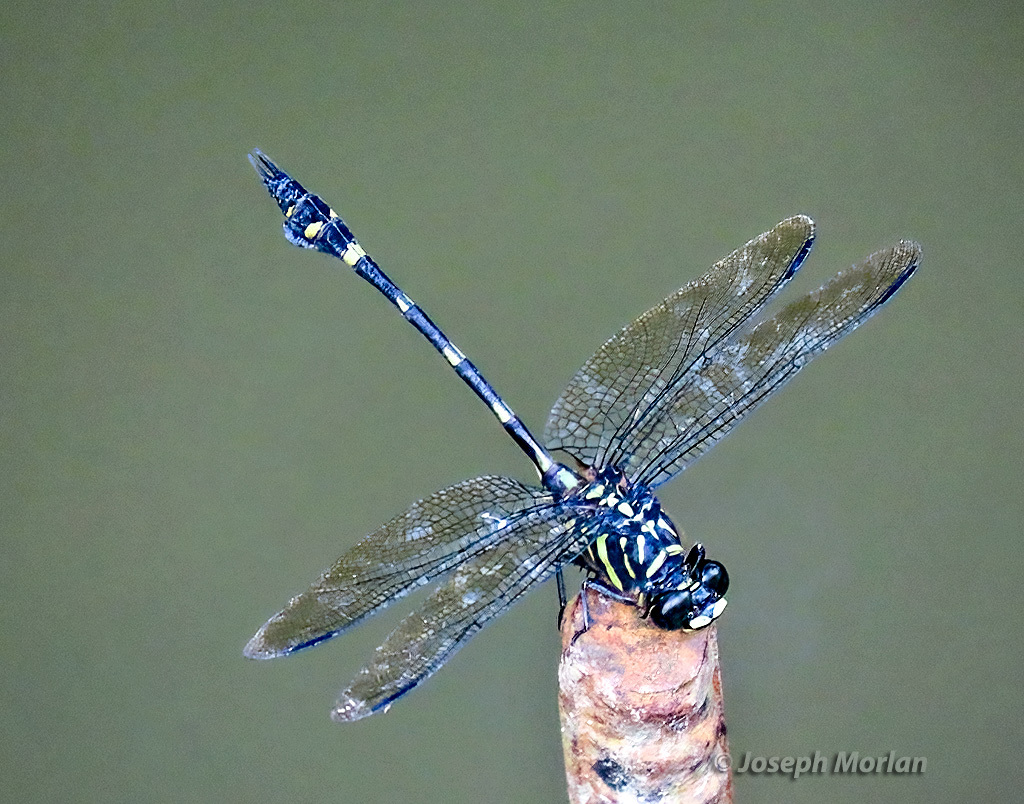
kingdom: Animalia
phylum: Arthropoda
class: Insecta
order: Odonata
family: Gomphidae
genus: Ictinogomphus
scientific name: Ictinogomphus lieftincki
